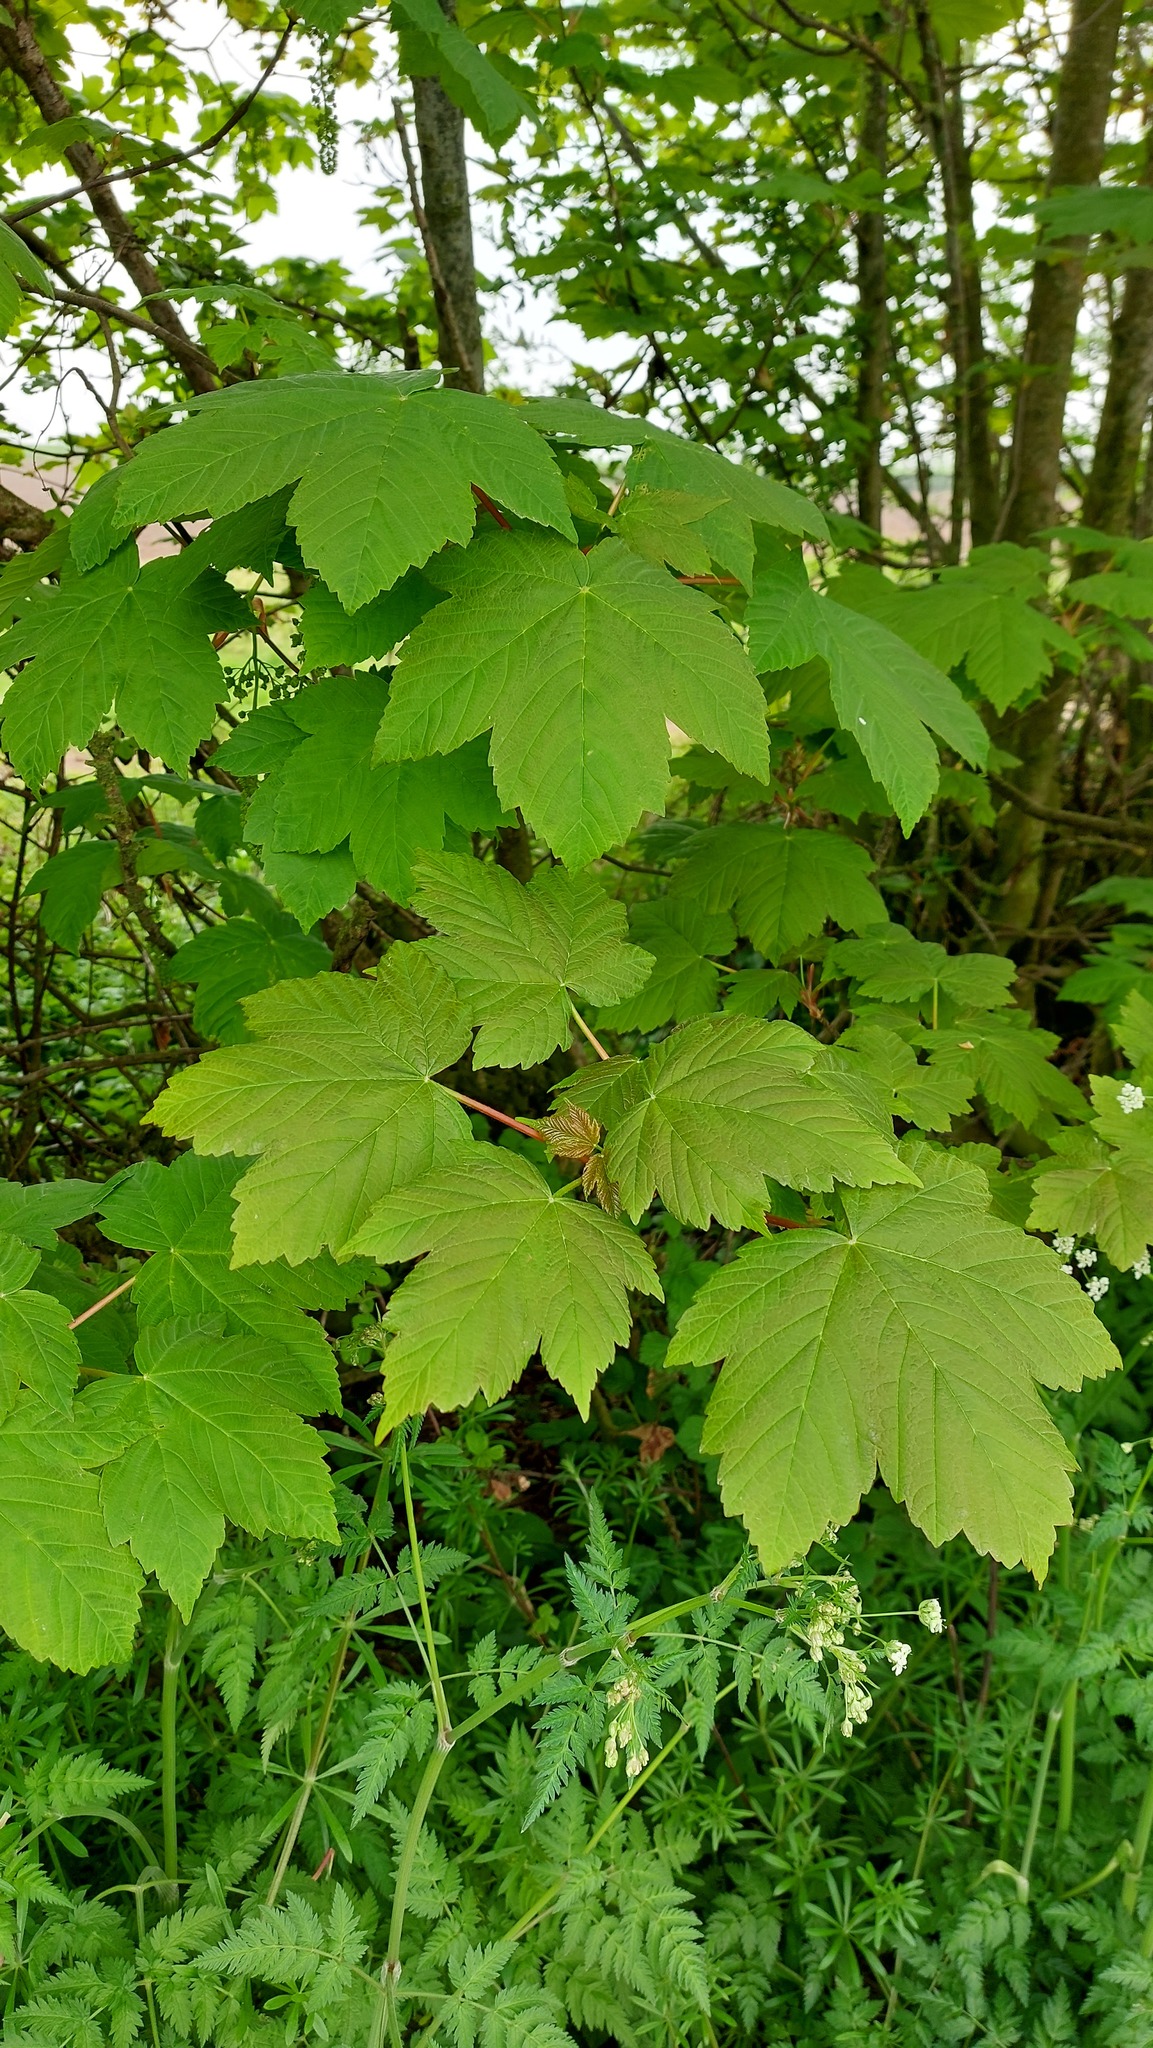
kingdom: Plantae
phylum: Tracheophyta
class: Magnoliopsida
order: Sapindales
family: Sapindaceae
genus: Acer
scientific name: Acer pseudoplatanus
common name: Sycamore
